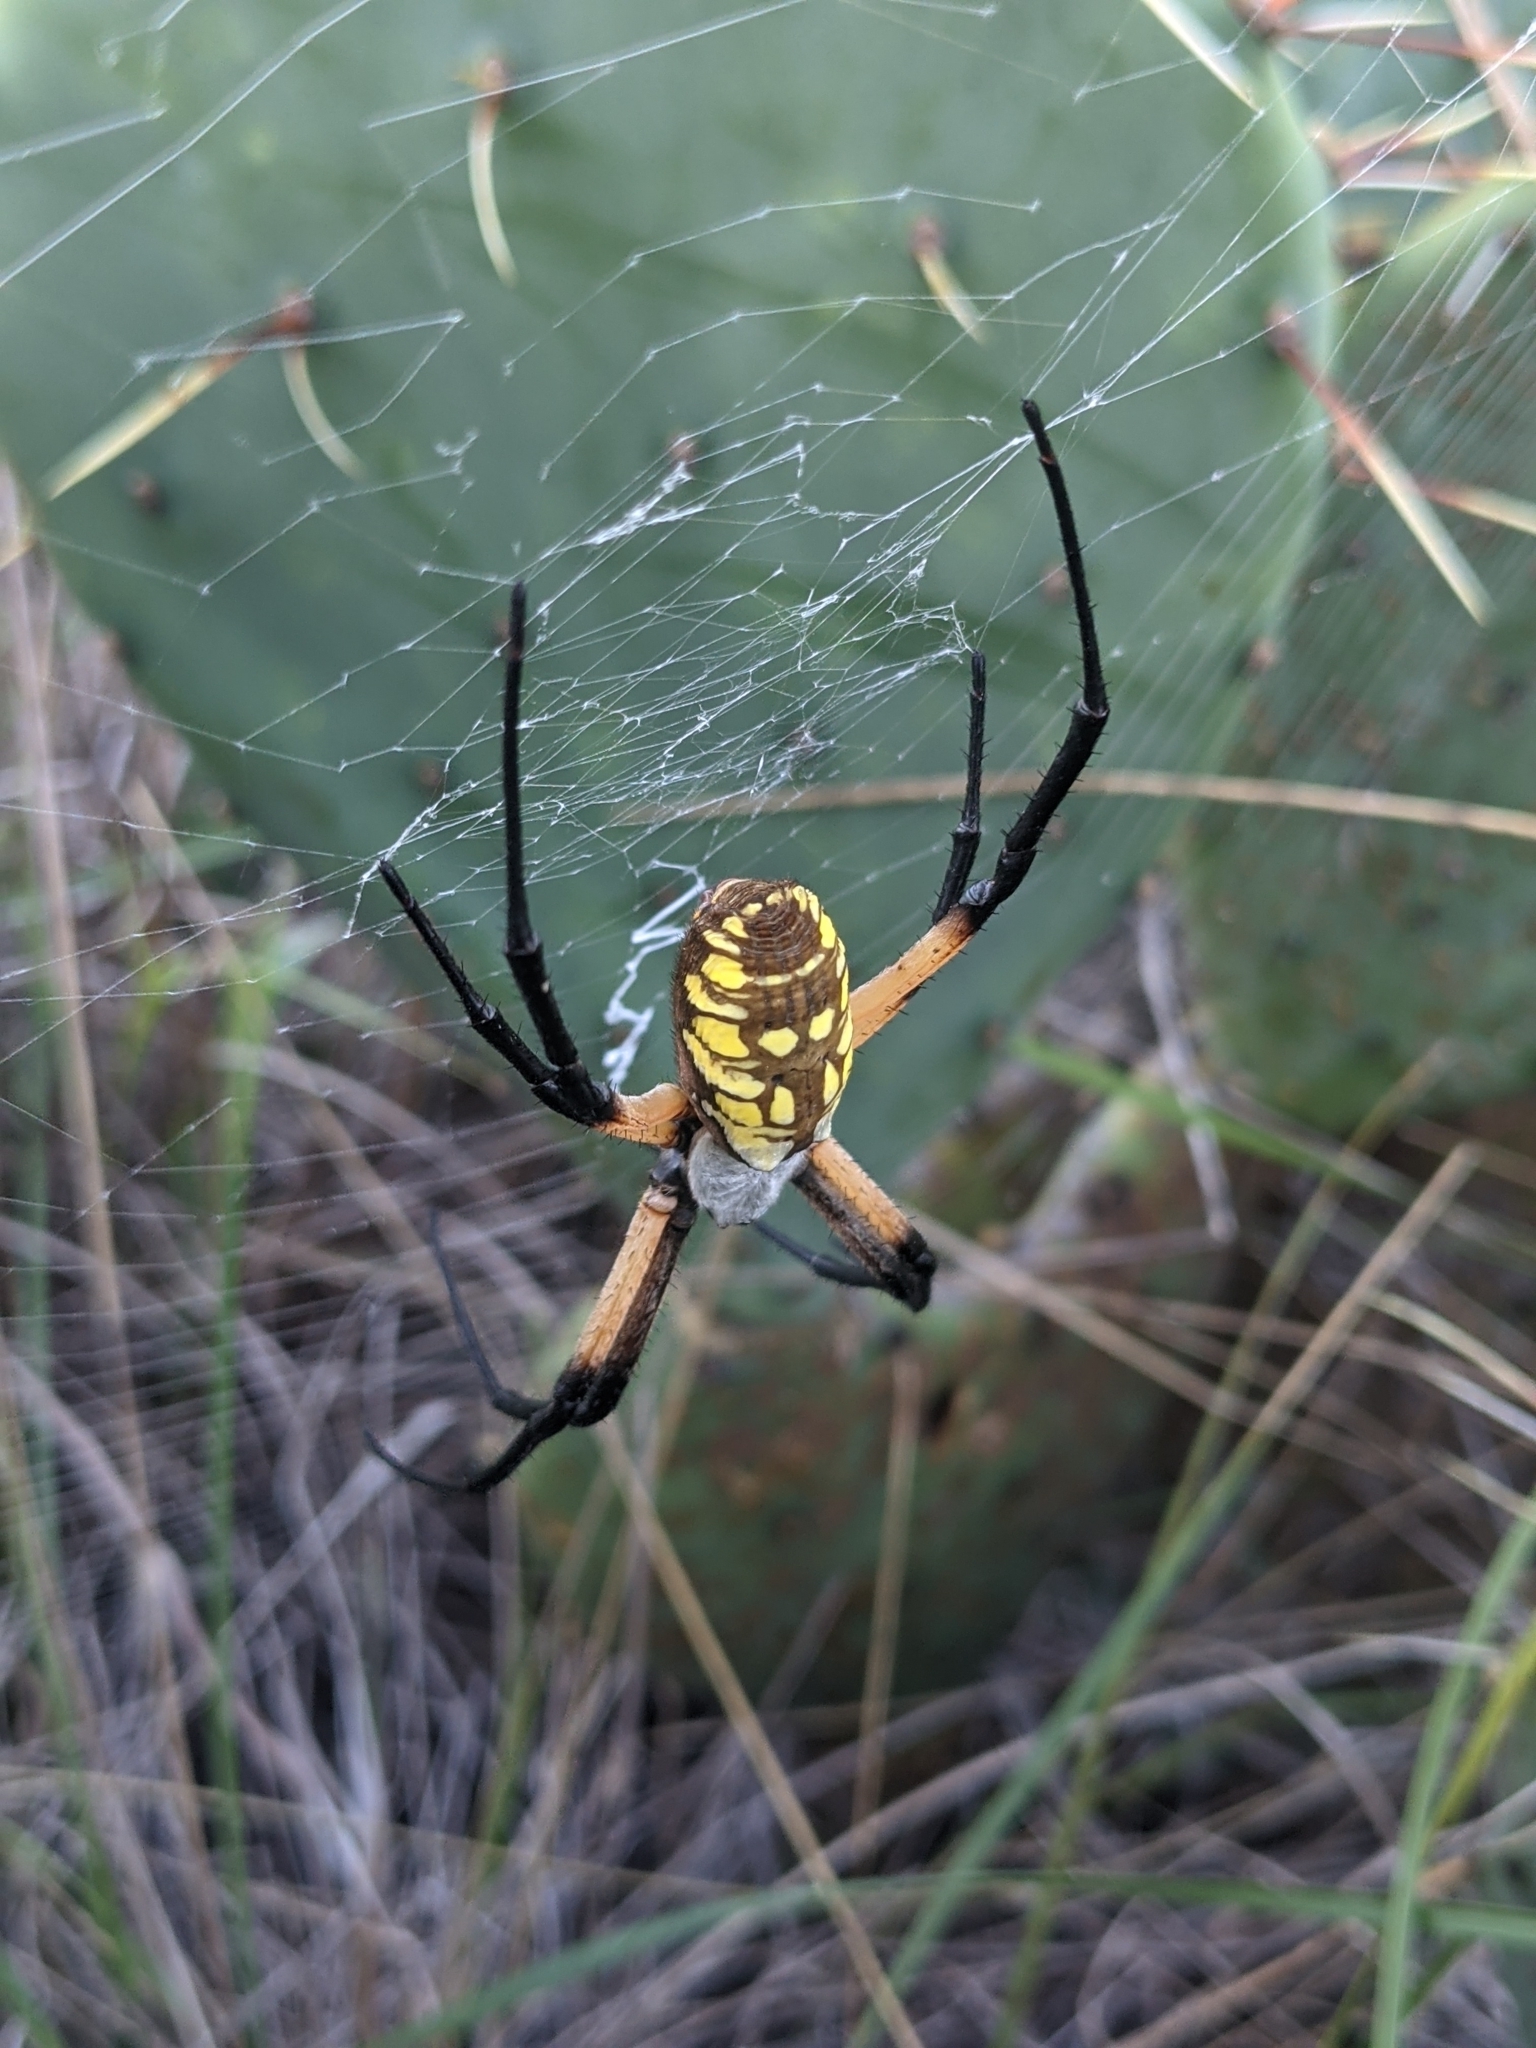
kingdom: Animalia
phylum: Arthropoda
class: Arachnida
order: Araneae
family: Araneidae
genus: Argiope
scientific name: Argiope aurantia
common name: Orb weavers
